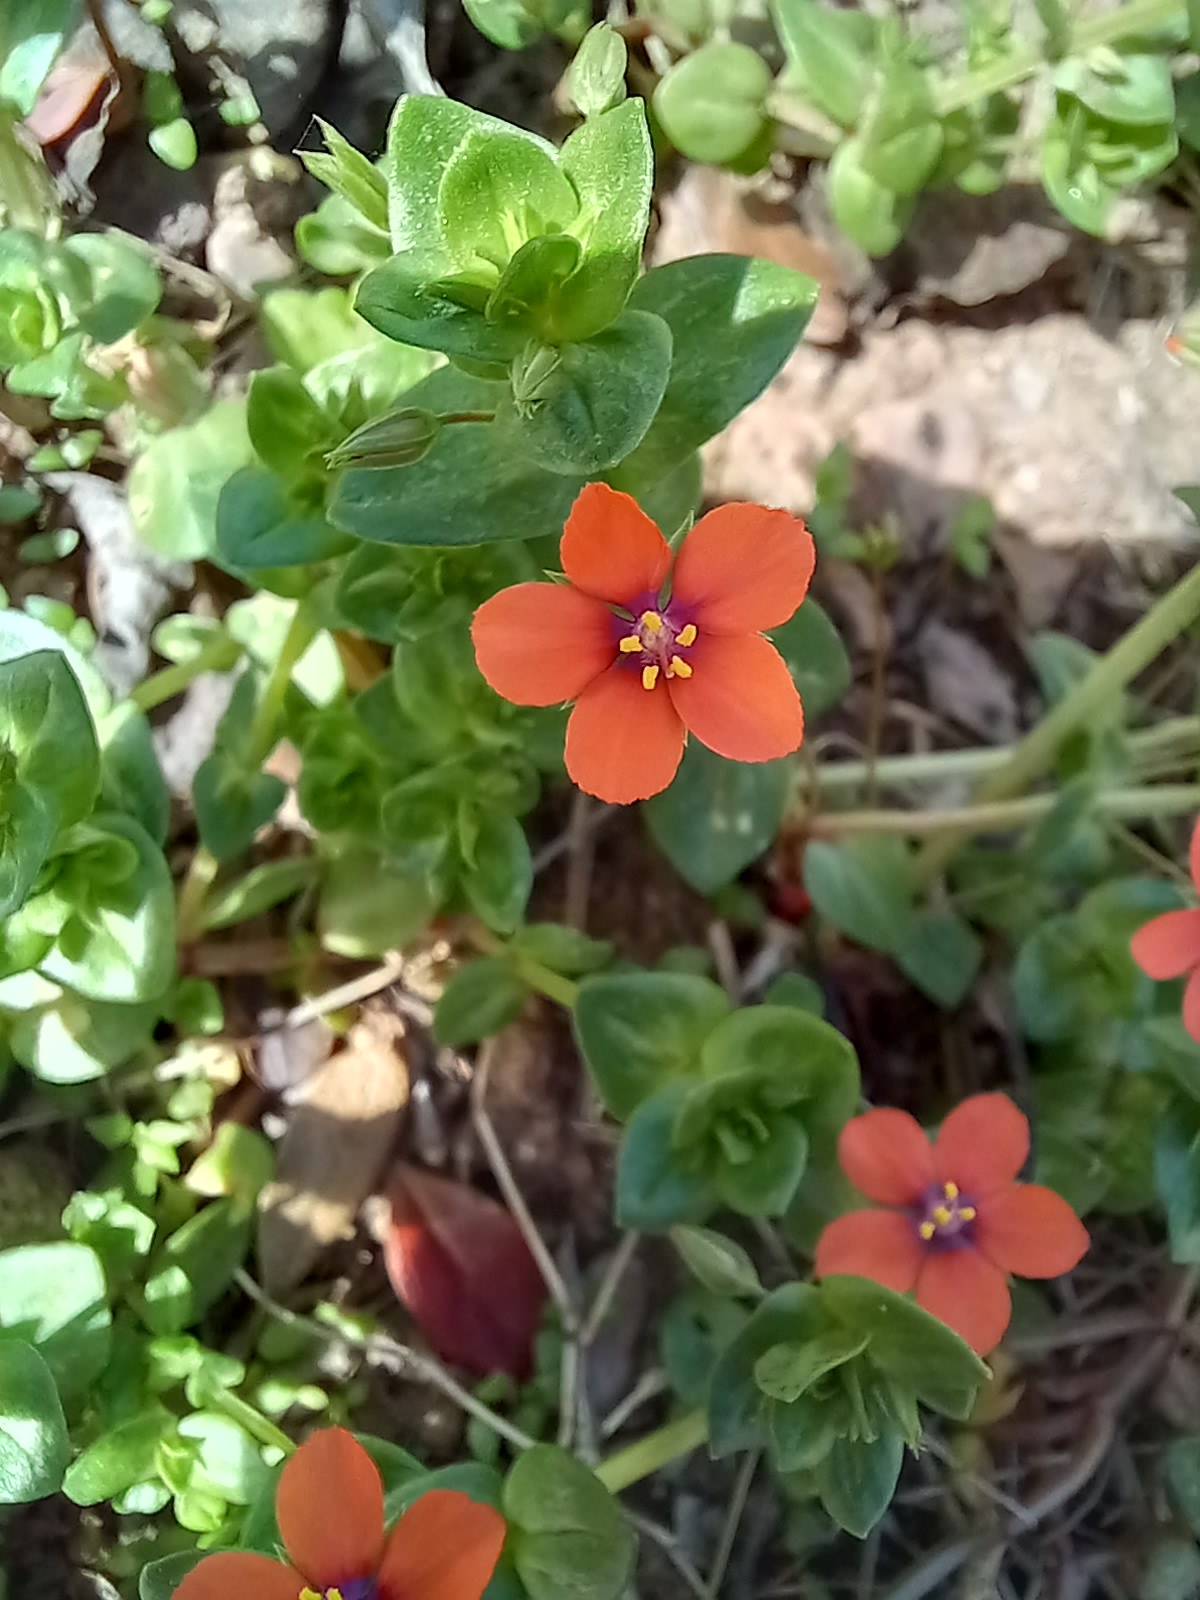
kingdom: Plantae
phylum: Tracheophyta
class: Magnoliopsida
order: Ericales
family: Primulaceae
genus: Lysimachia
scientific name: Lysimachia arvensis
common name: Scarlet pimpernel
